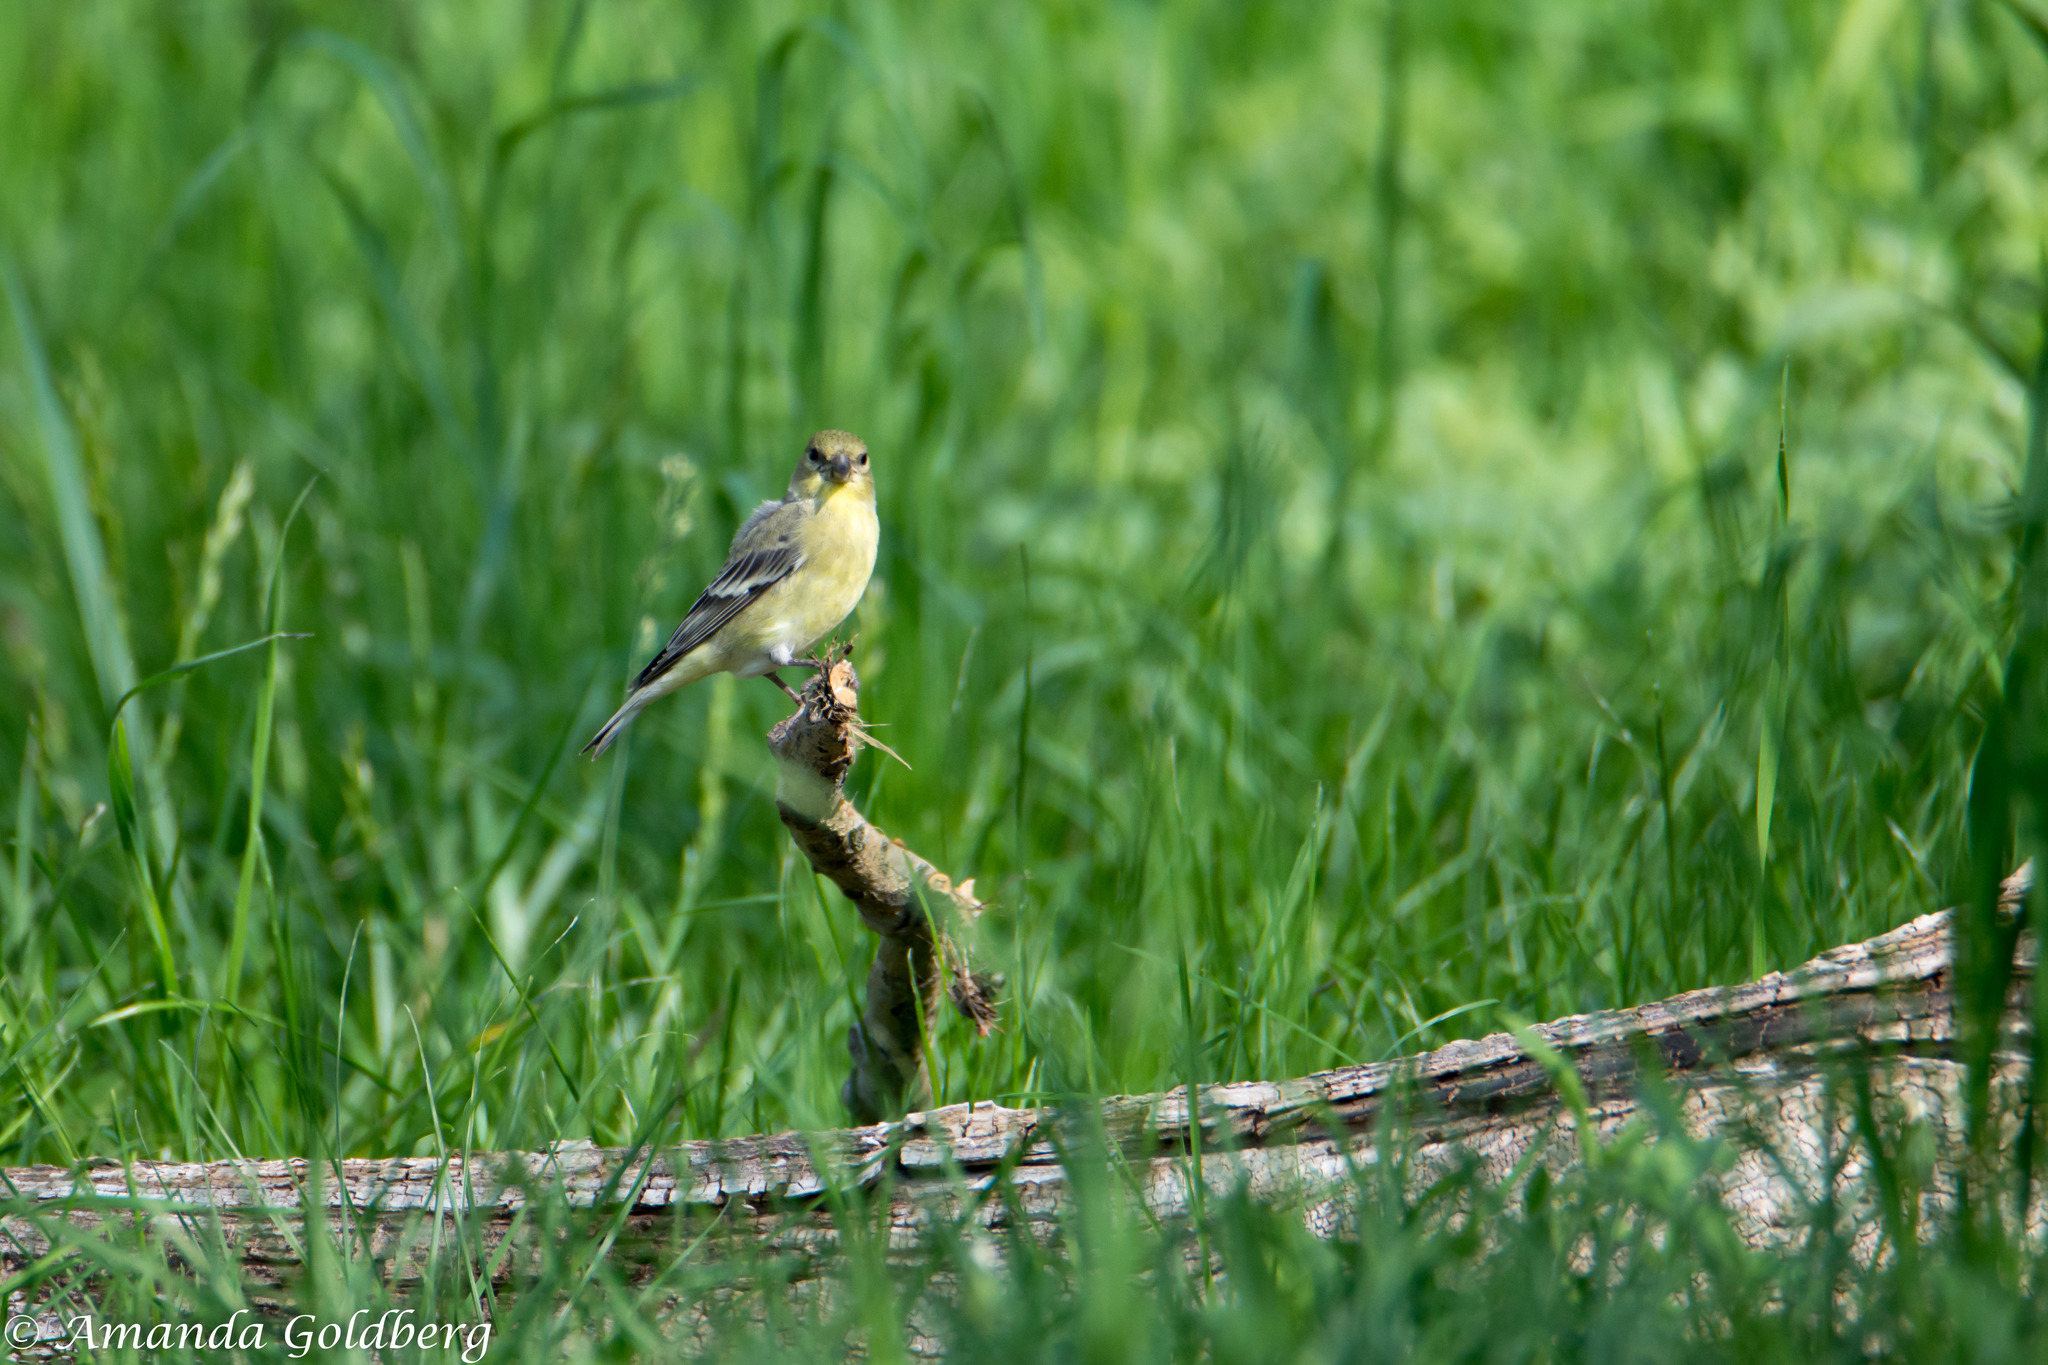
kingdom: Animalia
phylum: Chordata
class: Aves
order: Passeriformes
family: Fringillidae
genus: Spinus
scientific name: Spinus psaltria
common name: Lesser goldfinch
